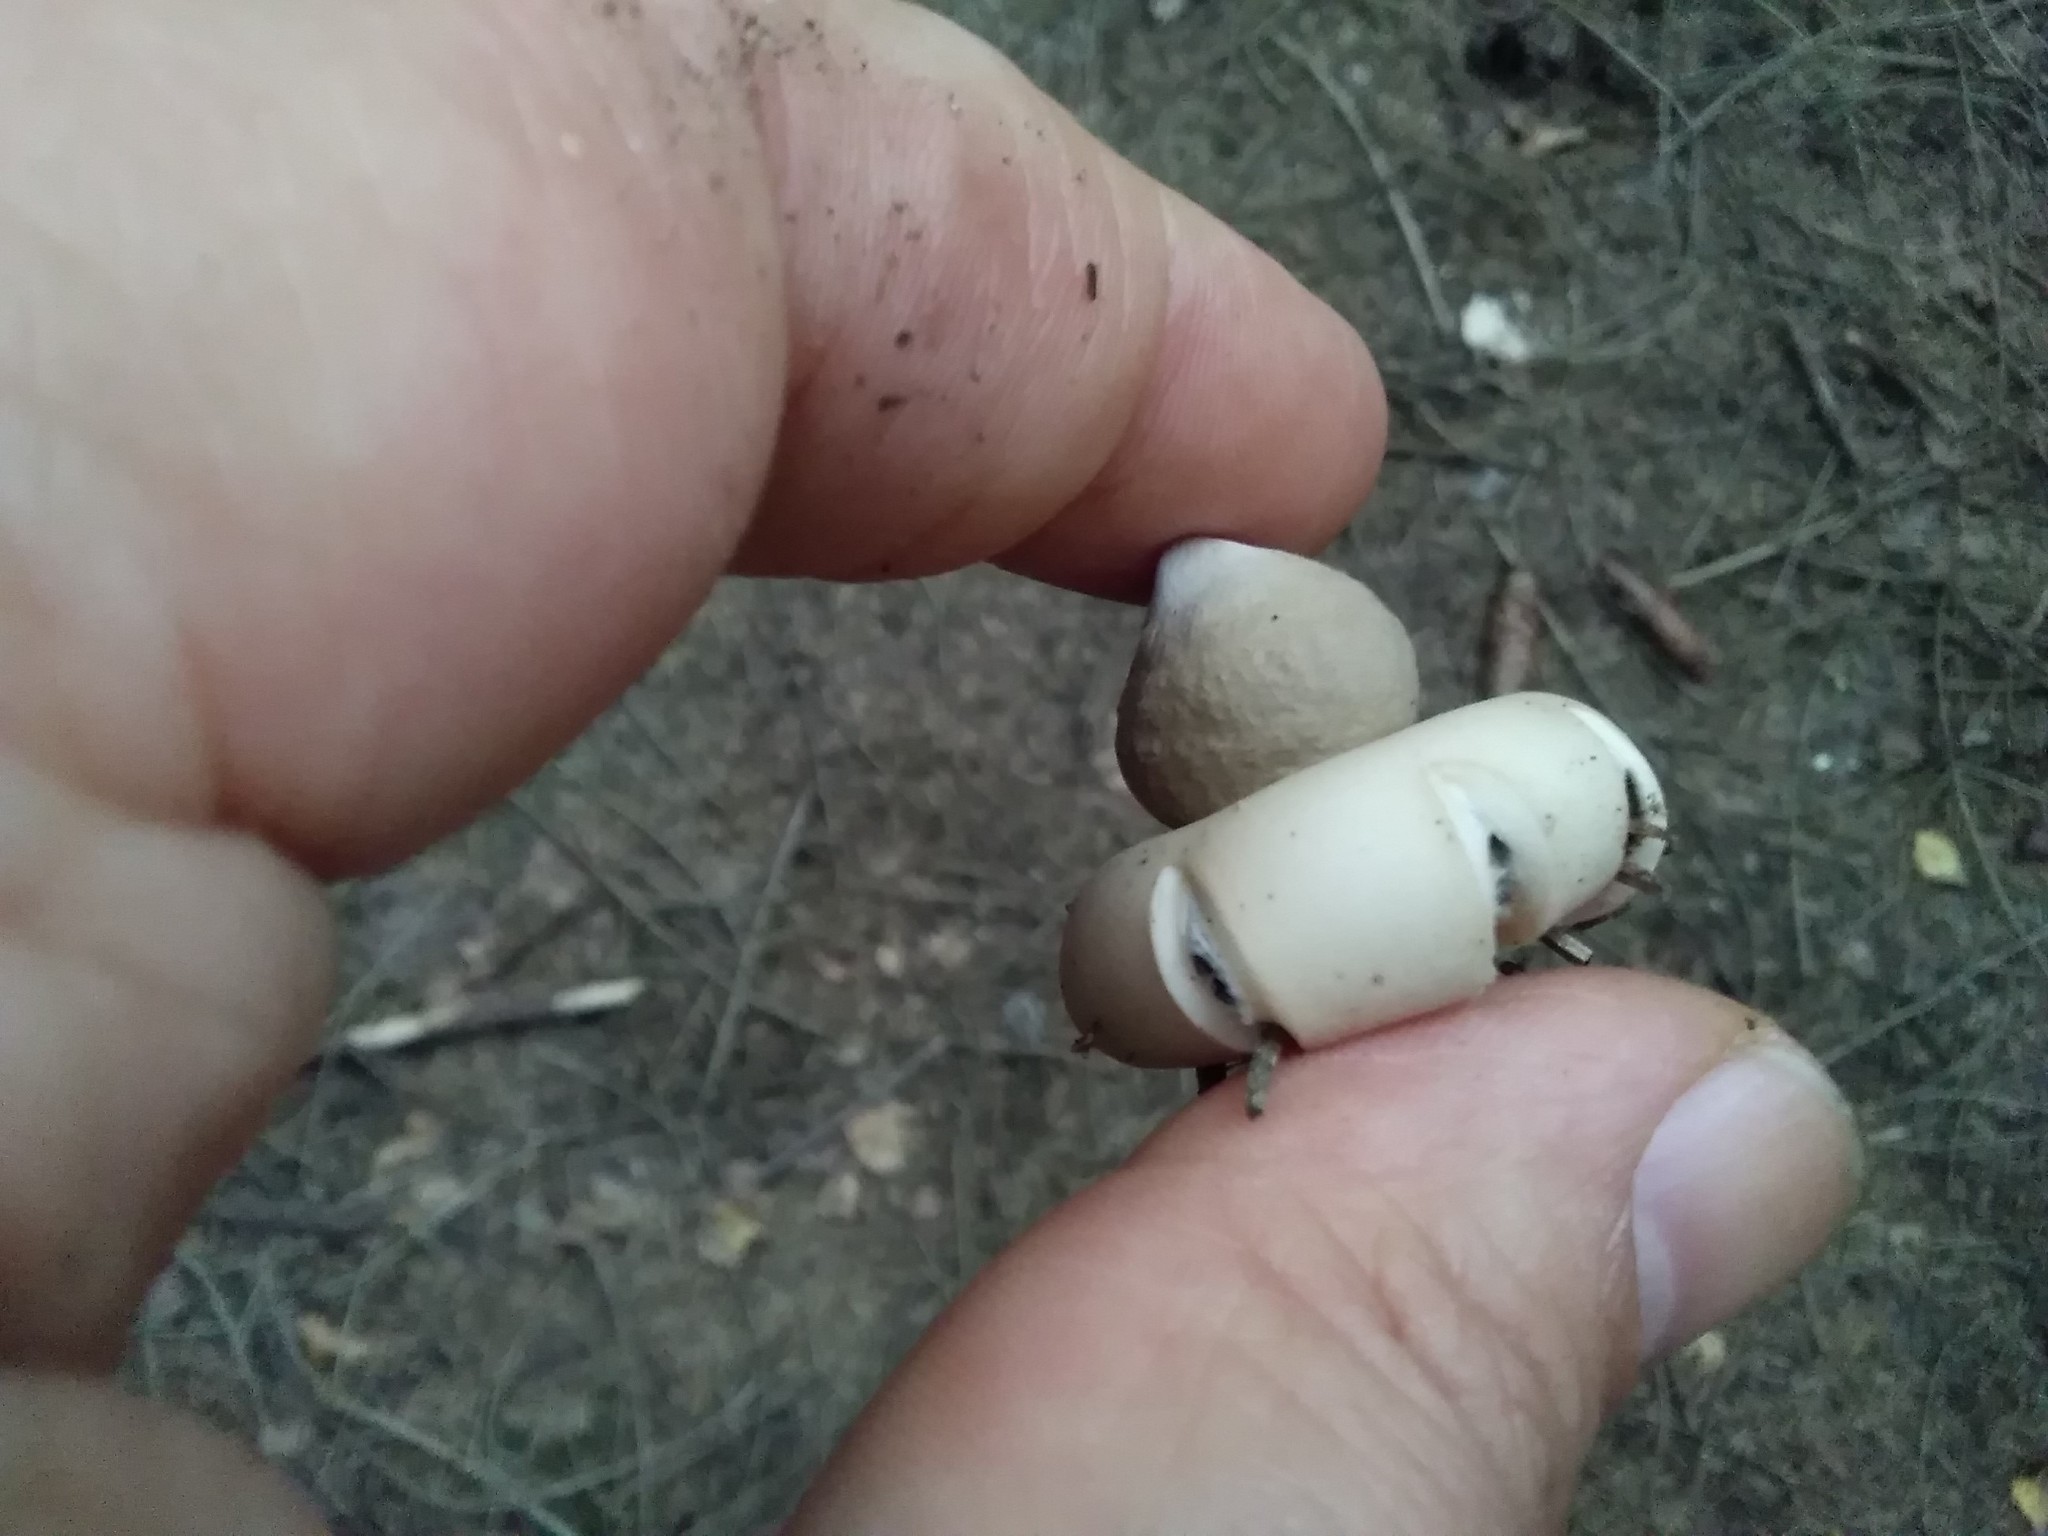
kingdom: Fungi
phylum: Basidiomycota
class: Agaricomycetes
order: Geastrales
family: Geastraceae
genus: Geastrum
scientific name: Geastrum fimbriatum
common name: Sessile earthstar
